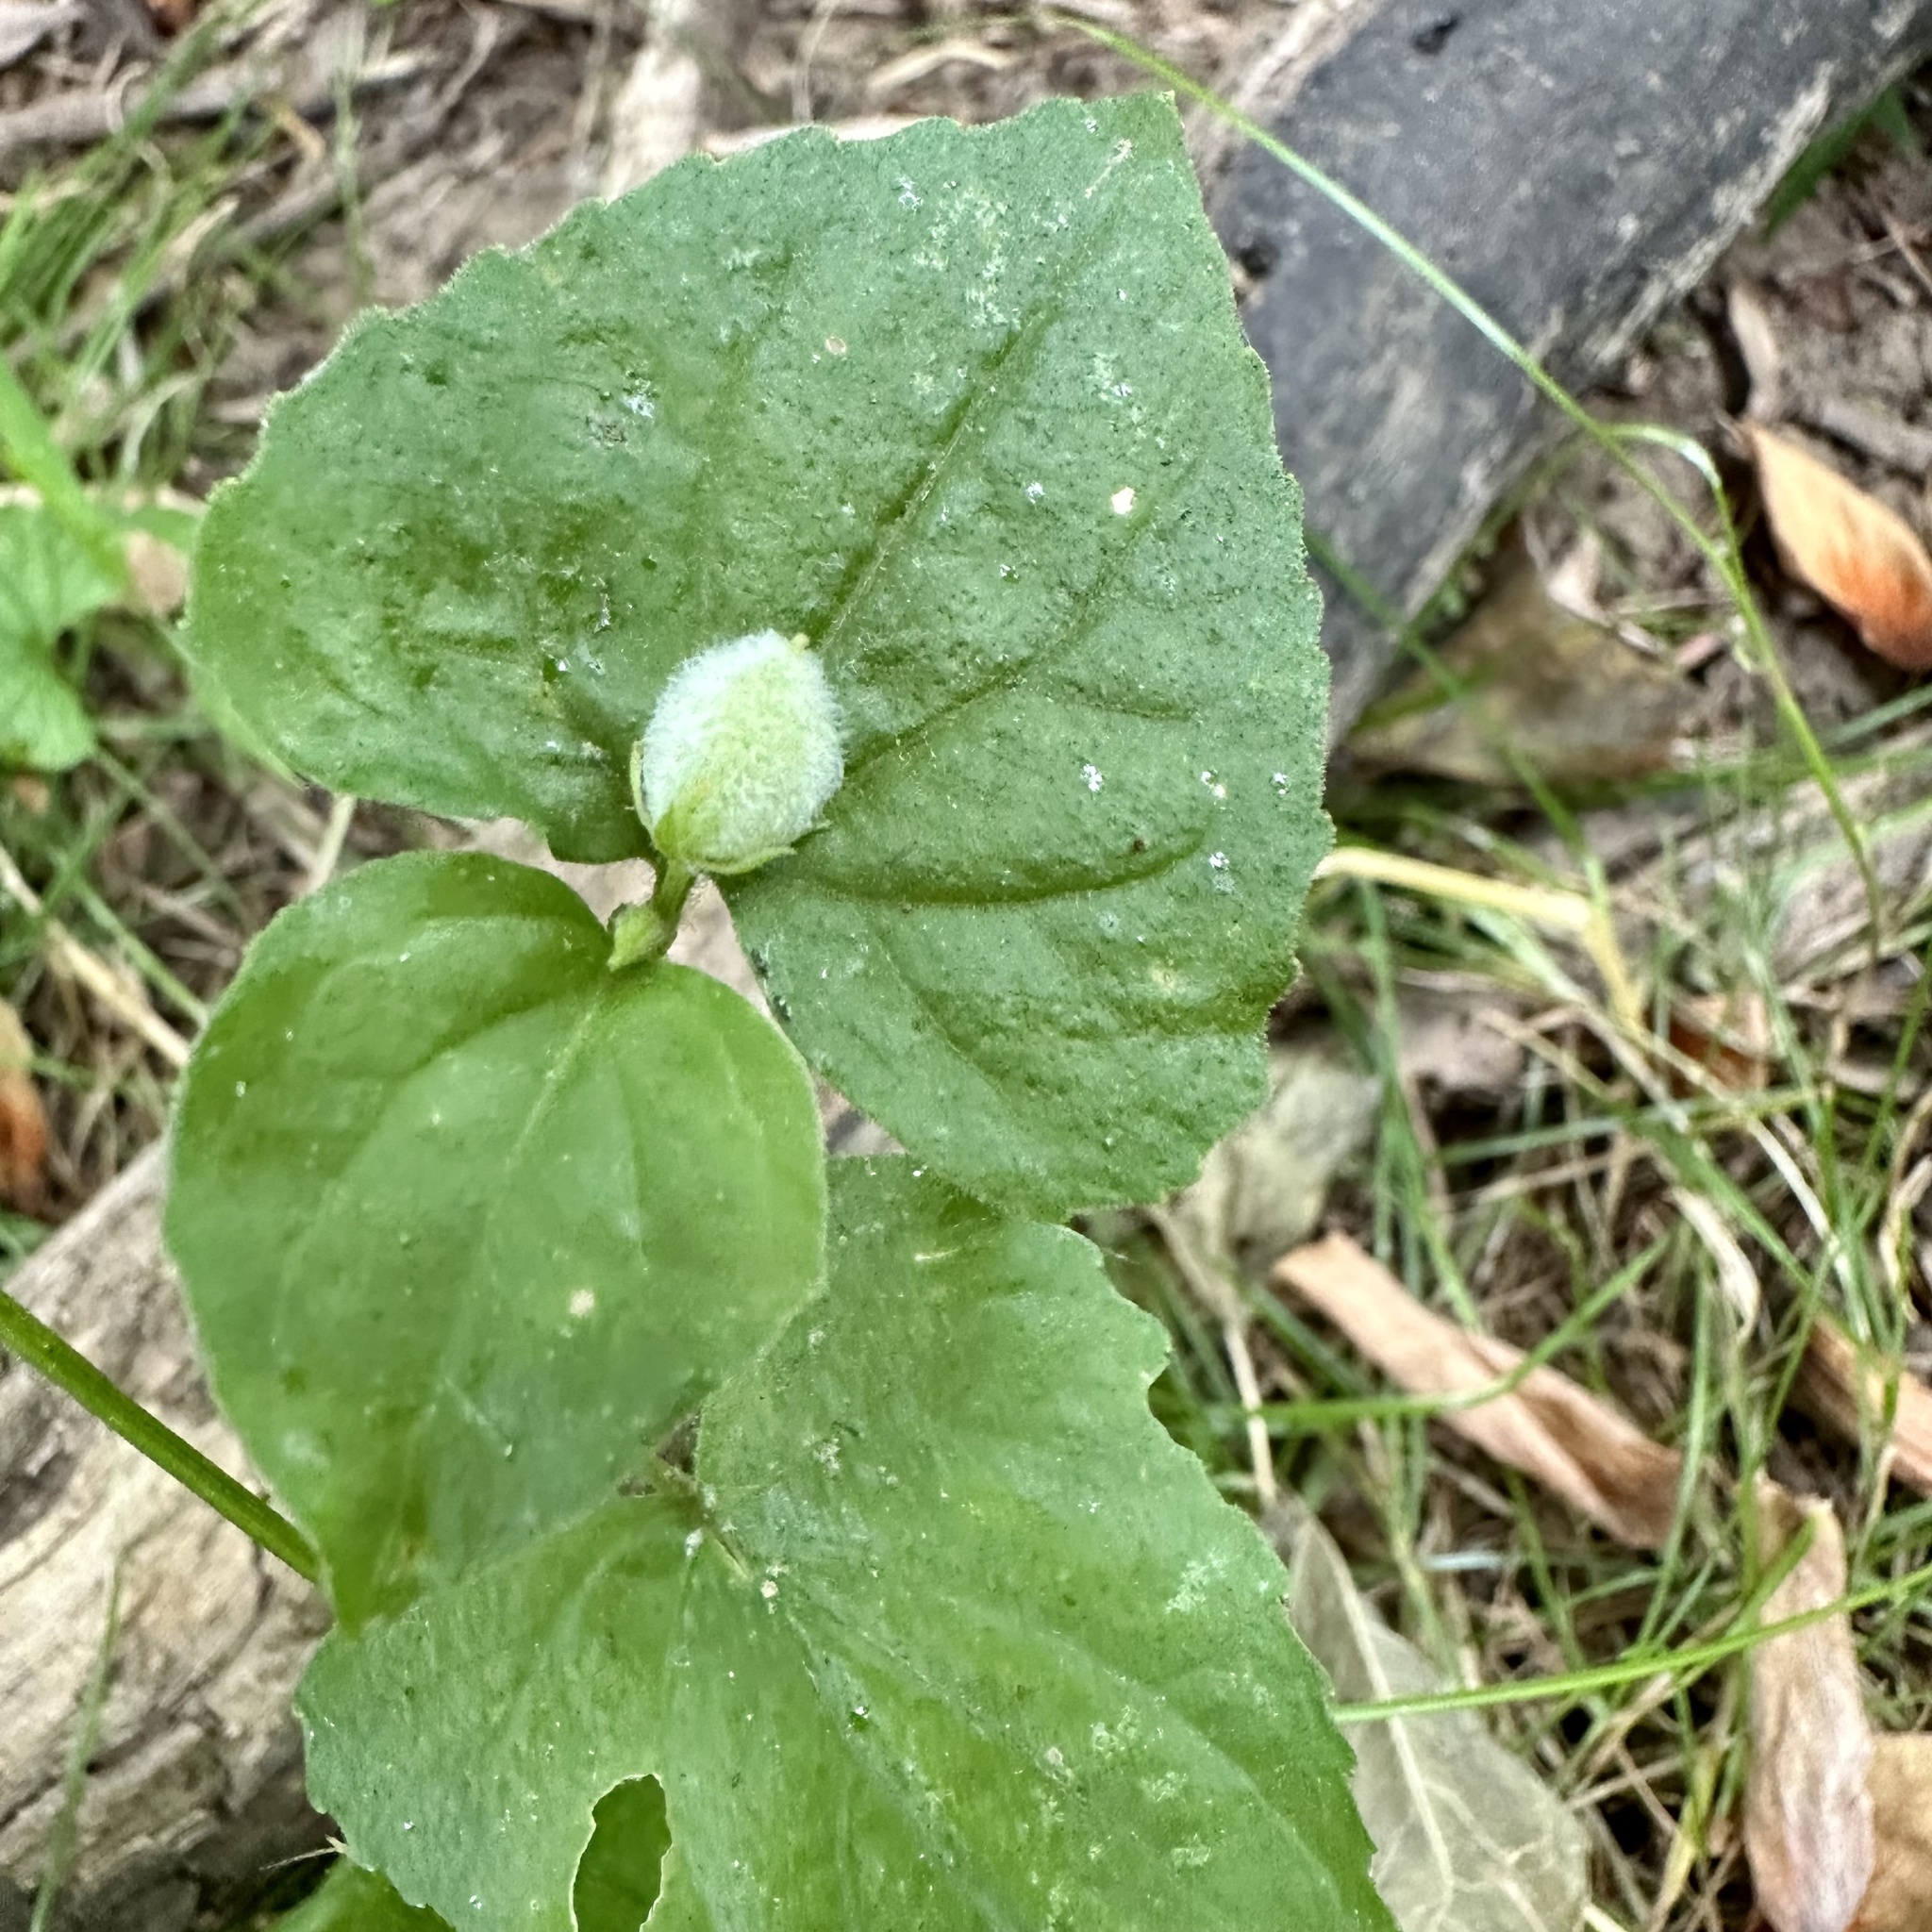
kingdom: Plantae
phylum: Tracheophyta
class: Magnoliopsida
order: Malpighiales
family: Violaceae
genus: Viola
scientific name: Viola eriocarpa
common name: Smooth yellow violet
